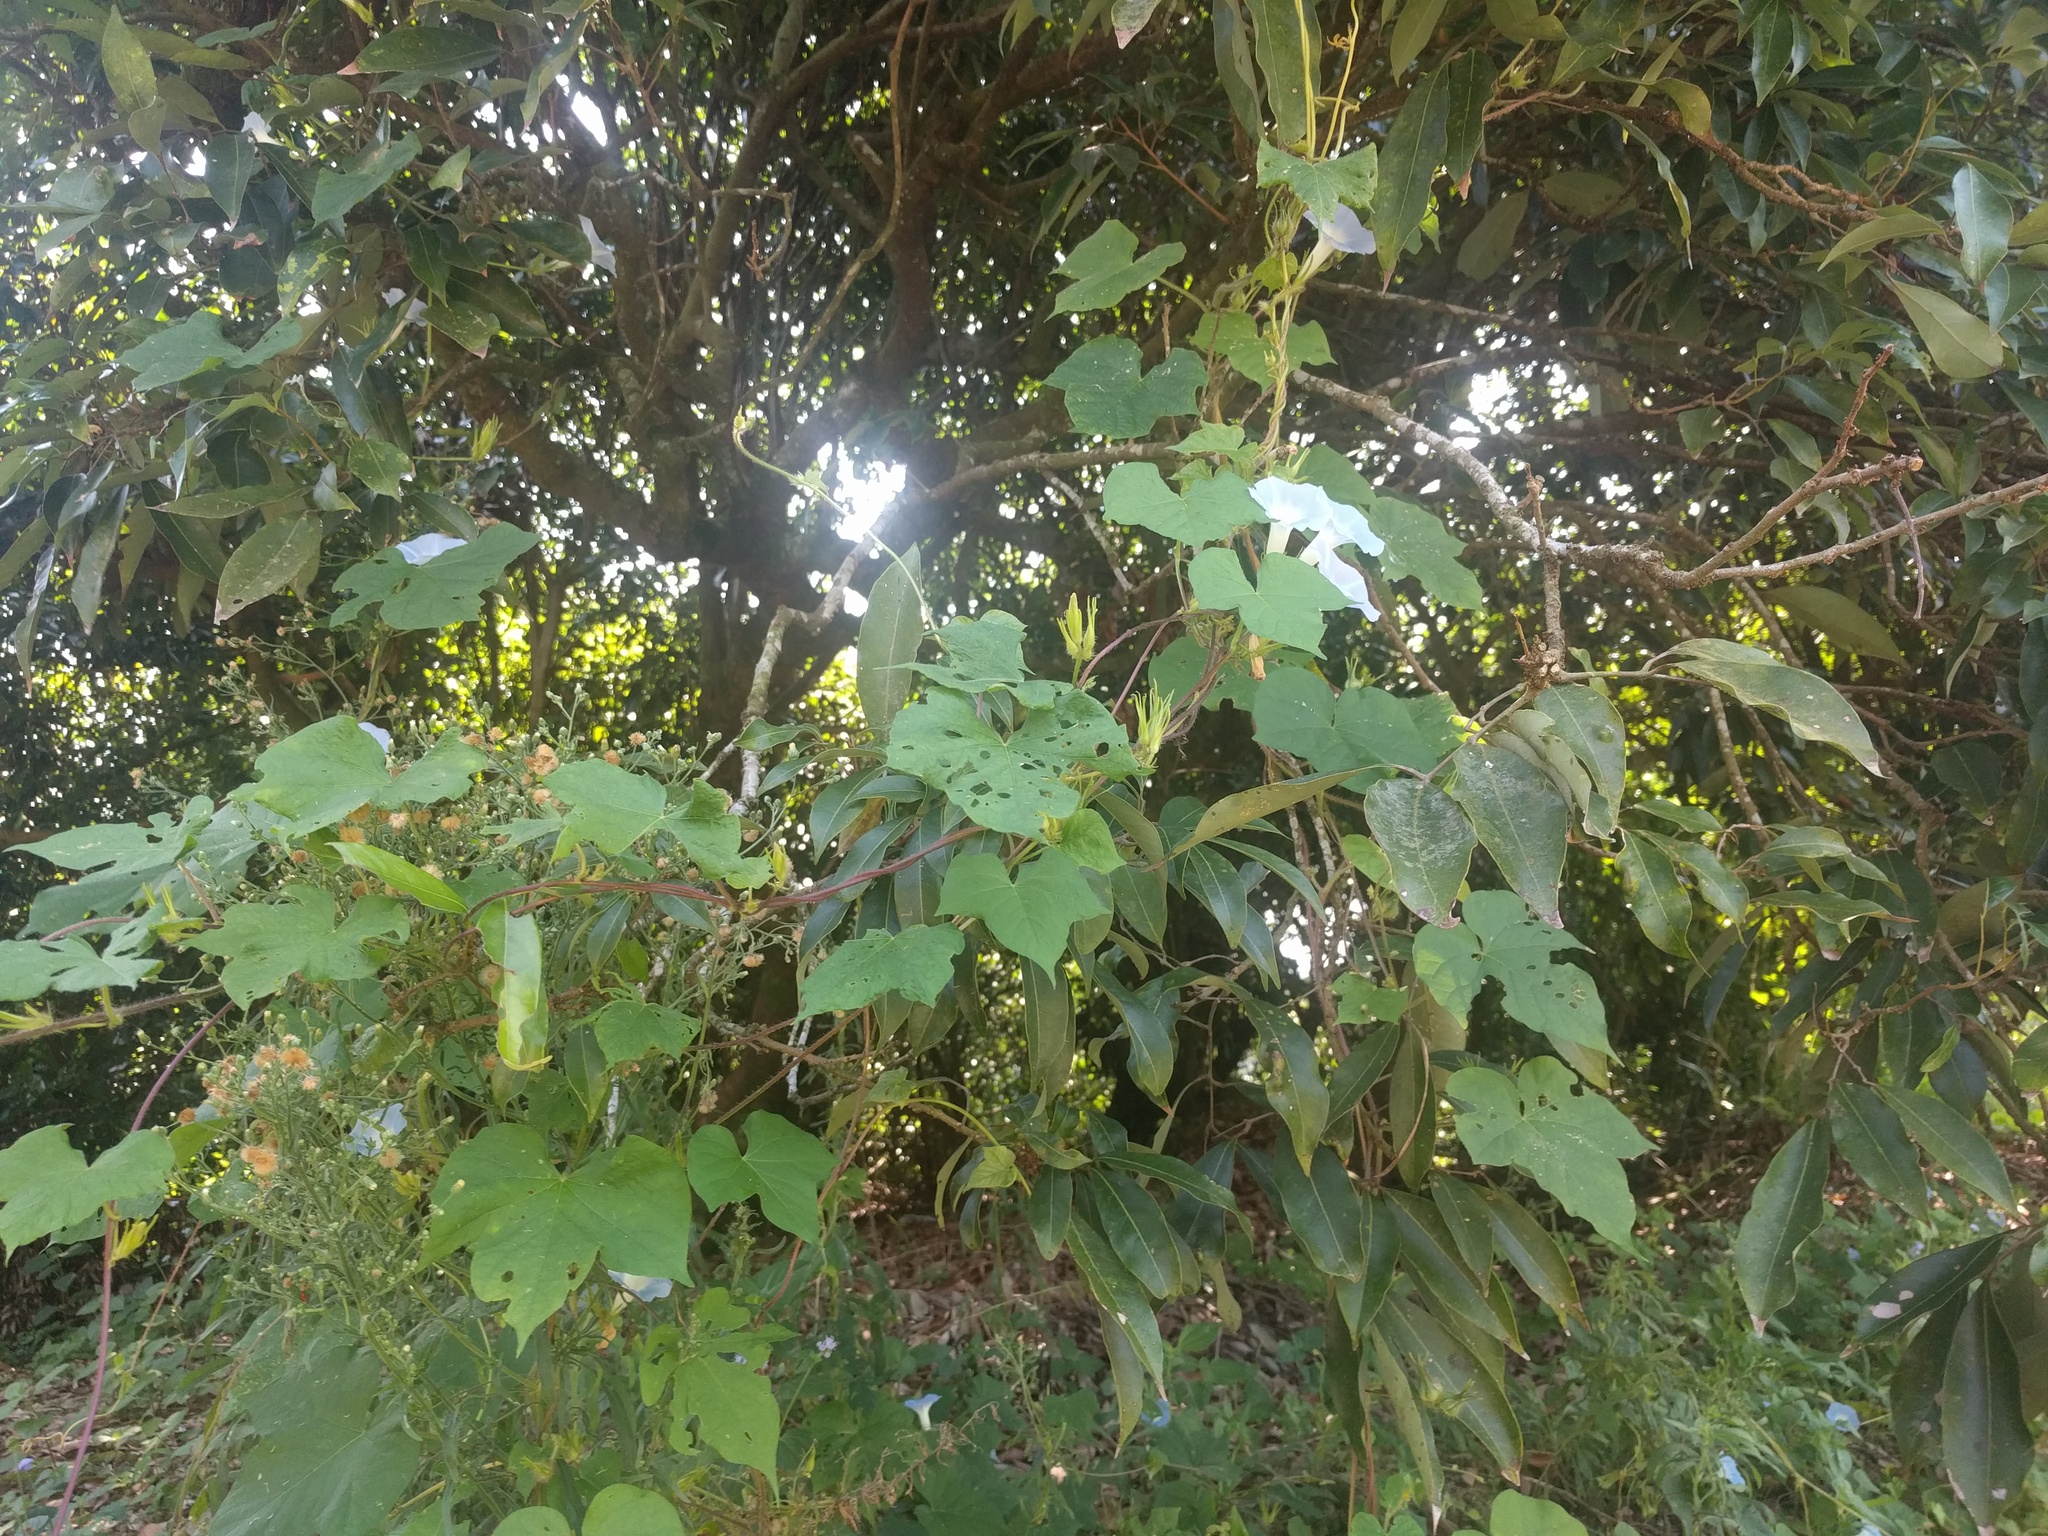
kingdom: Plantae
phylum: Tracheophyta
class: Magnoliopsida
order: Solanales
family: Convolvulaceae
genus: Ipomoea
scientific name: Ipomoea nil
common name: Japanese morning-glory
